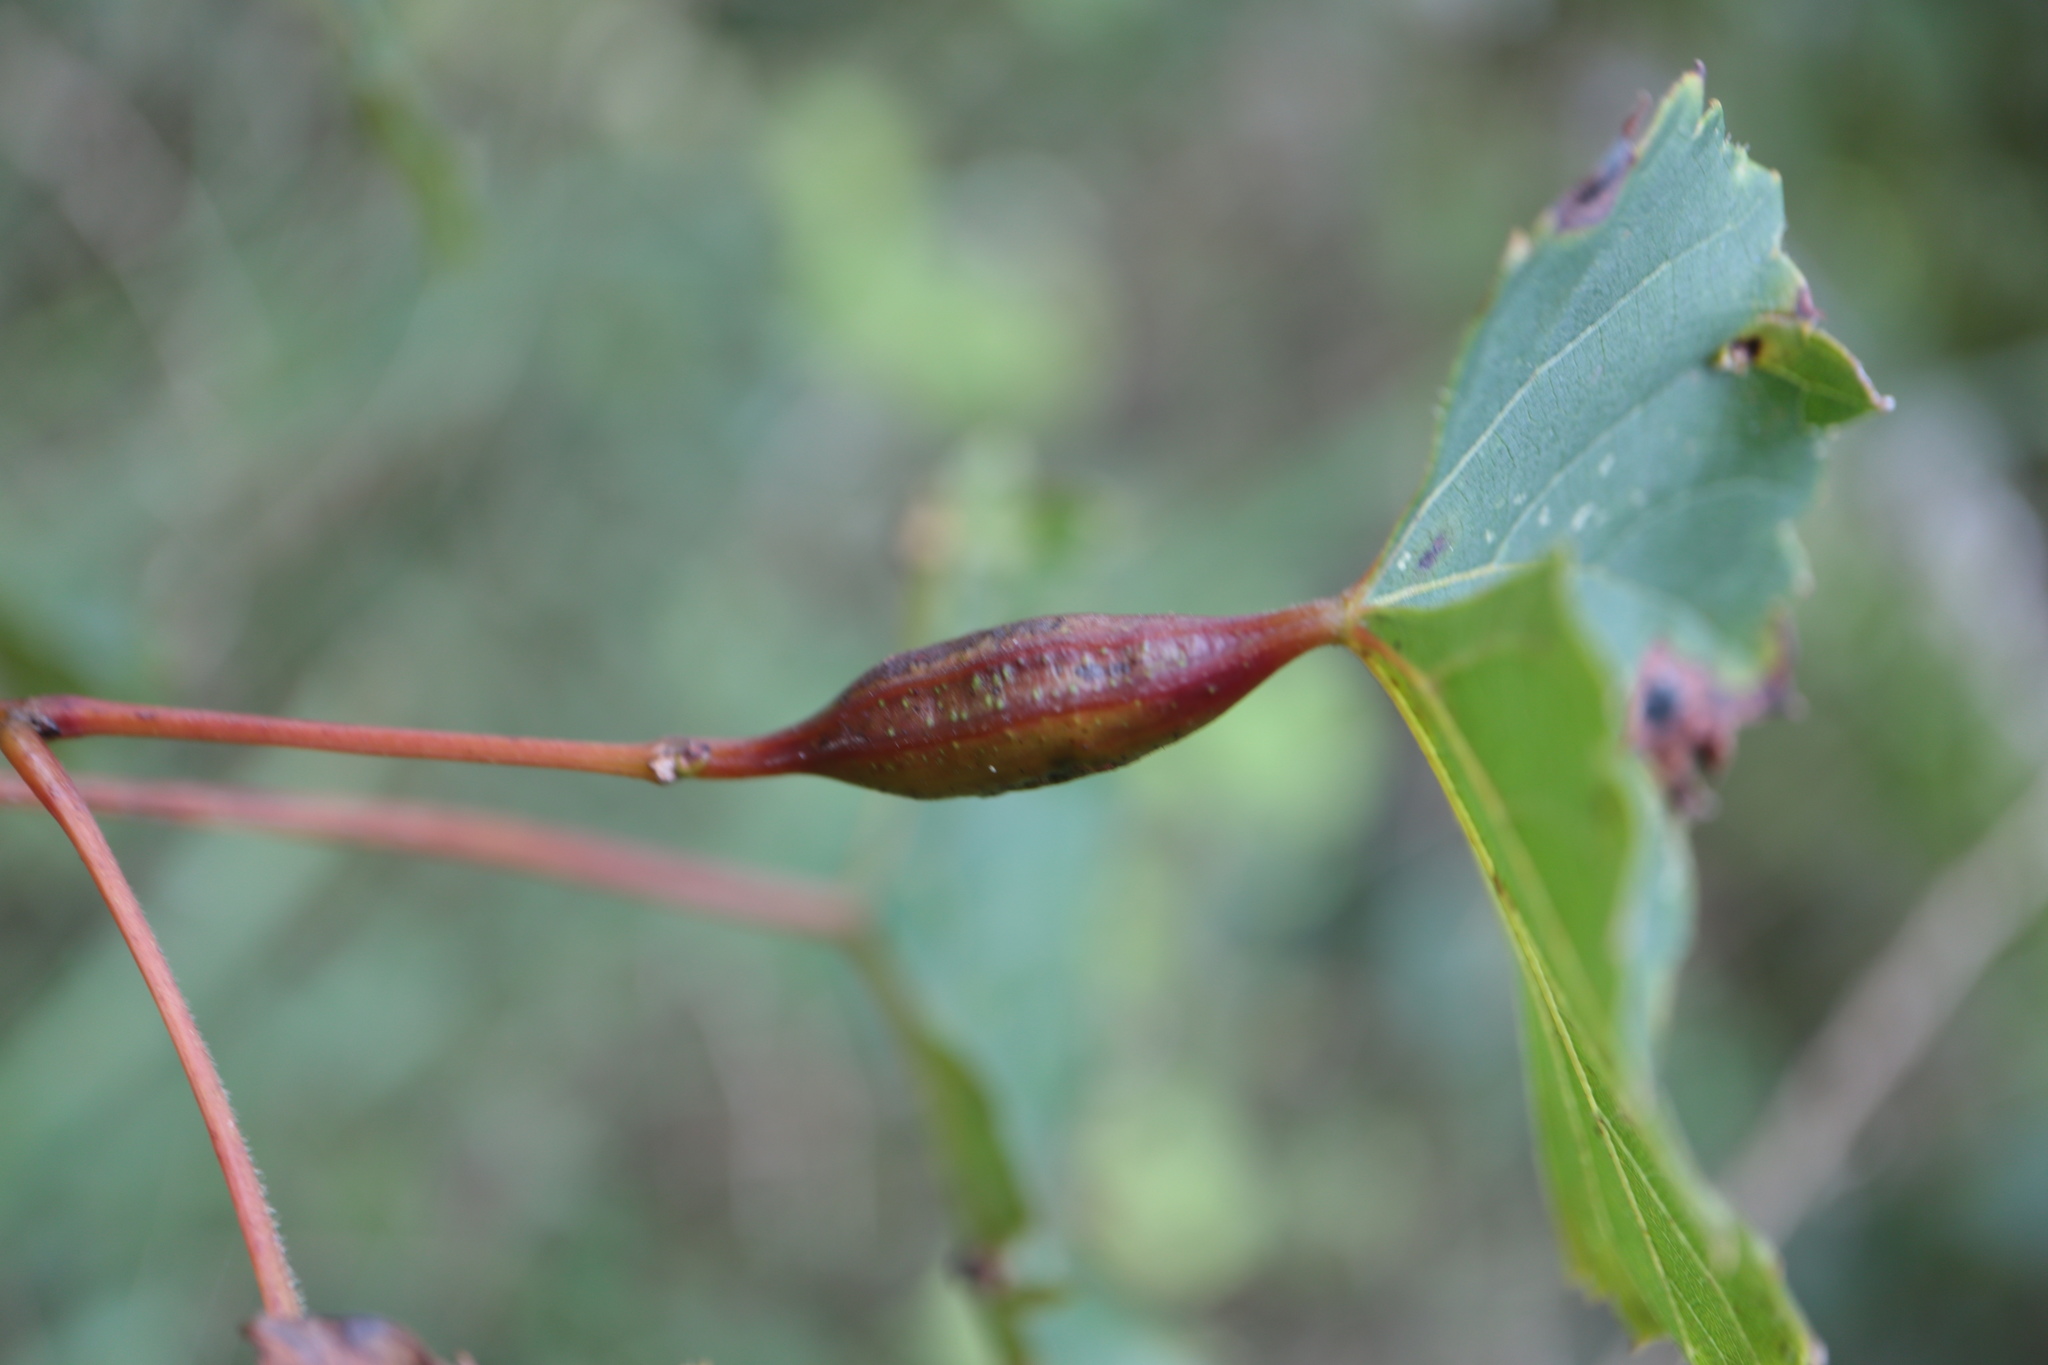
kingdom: Animalia
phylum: Arthropoda
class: Insecta
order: Diptera
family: Cecidomyiidae
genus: Neolasioptera
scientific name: Neolasioptera vitinea
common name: Grape leaf petiole gall
